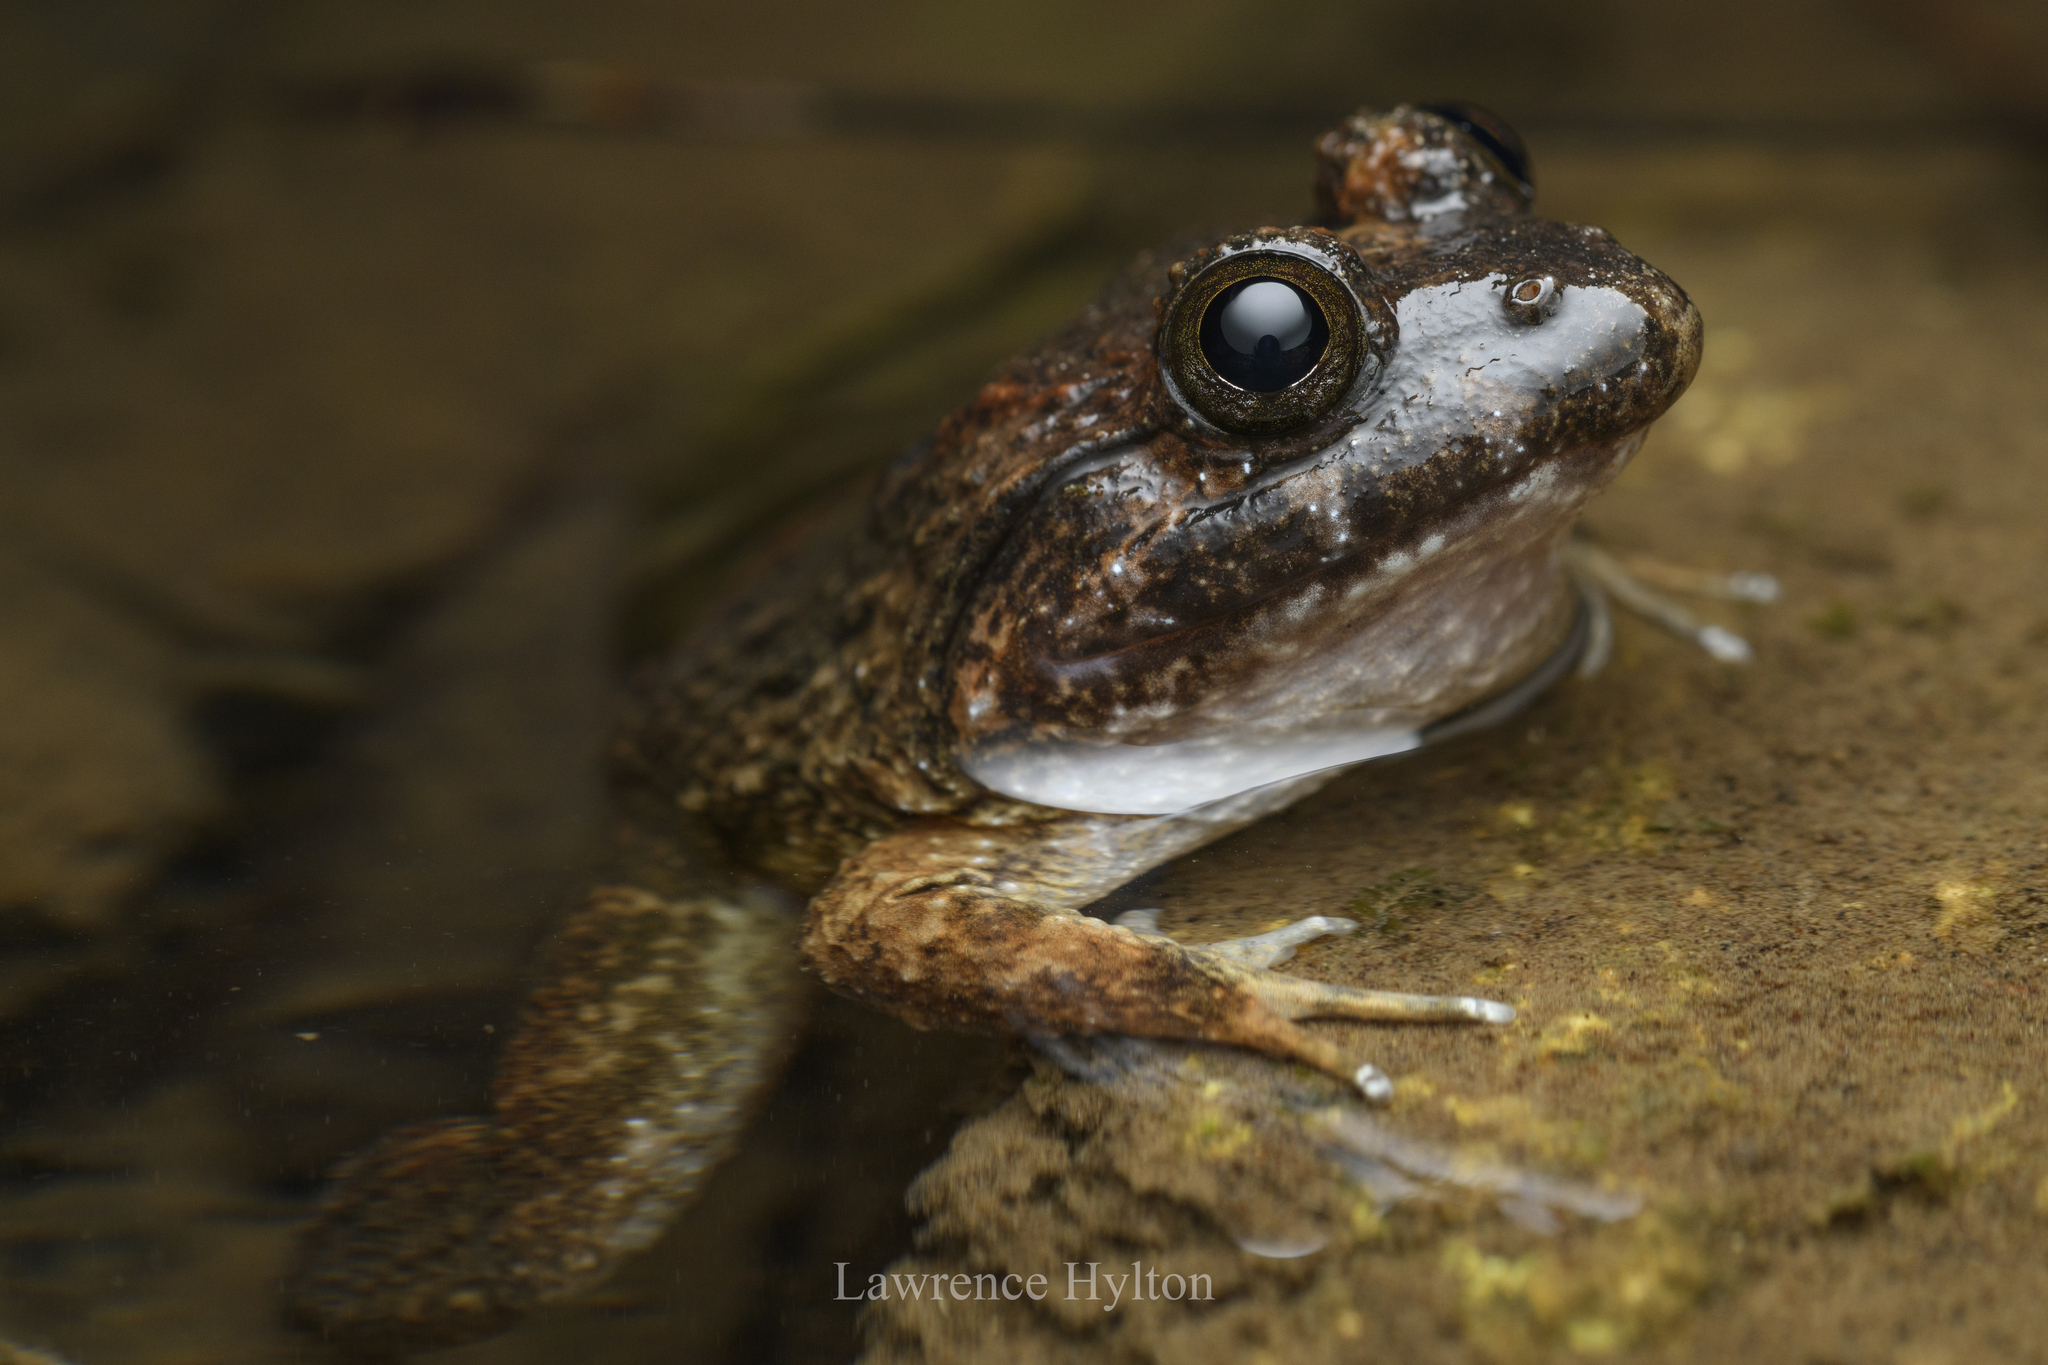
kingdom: Animalia
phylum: Chordata
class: Amphibia
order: Anura
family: Dicroglossidae
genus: Limnonectes
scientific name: Limnonectes fujianensis
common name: Fujian large-headed frog
